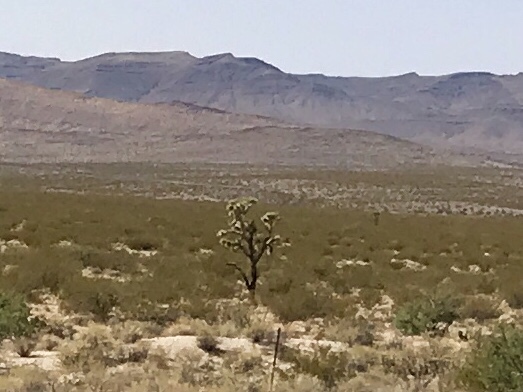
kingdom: Plantae
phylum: Tracheophyta
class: Liliopsida
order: Asparagales
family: Asparagaceae
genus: Yucca
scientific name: Yucca brevifolia
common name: Joshua tree
